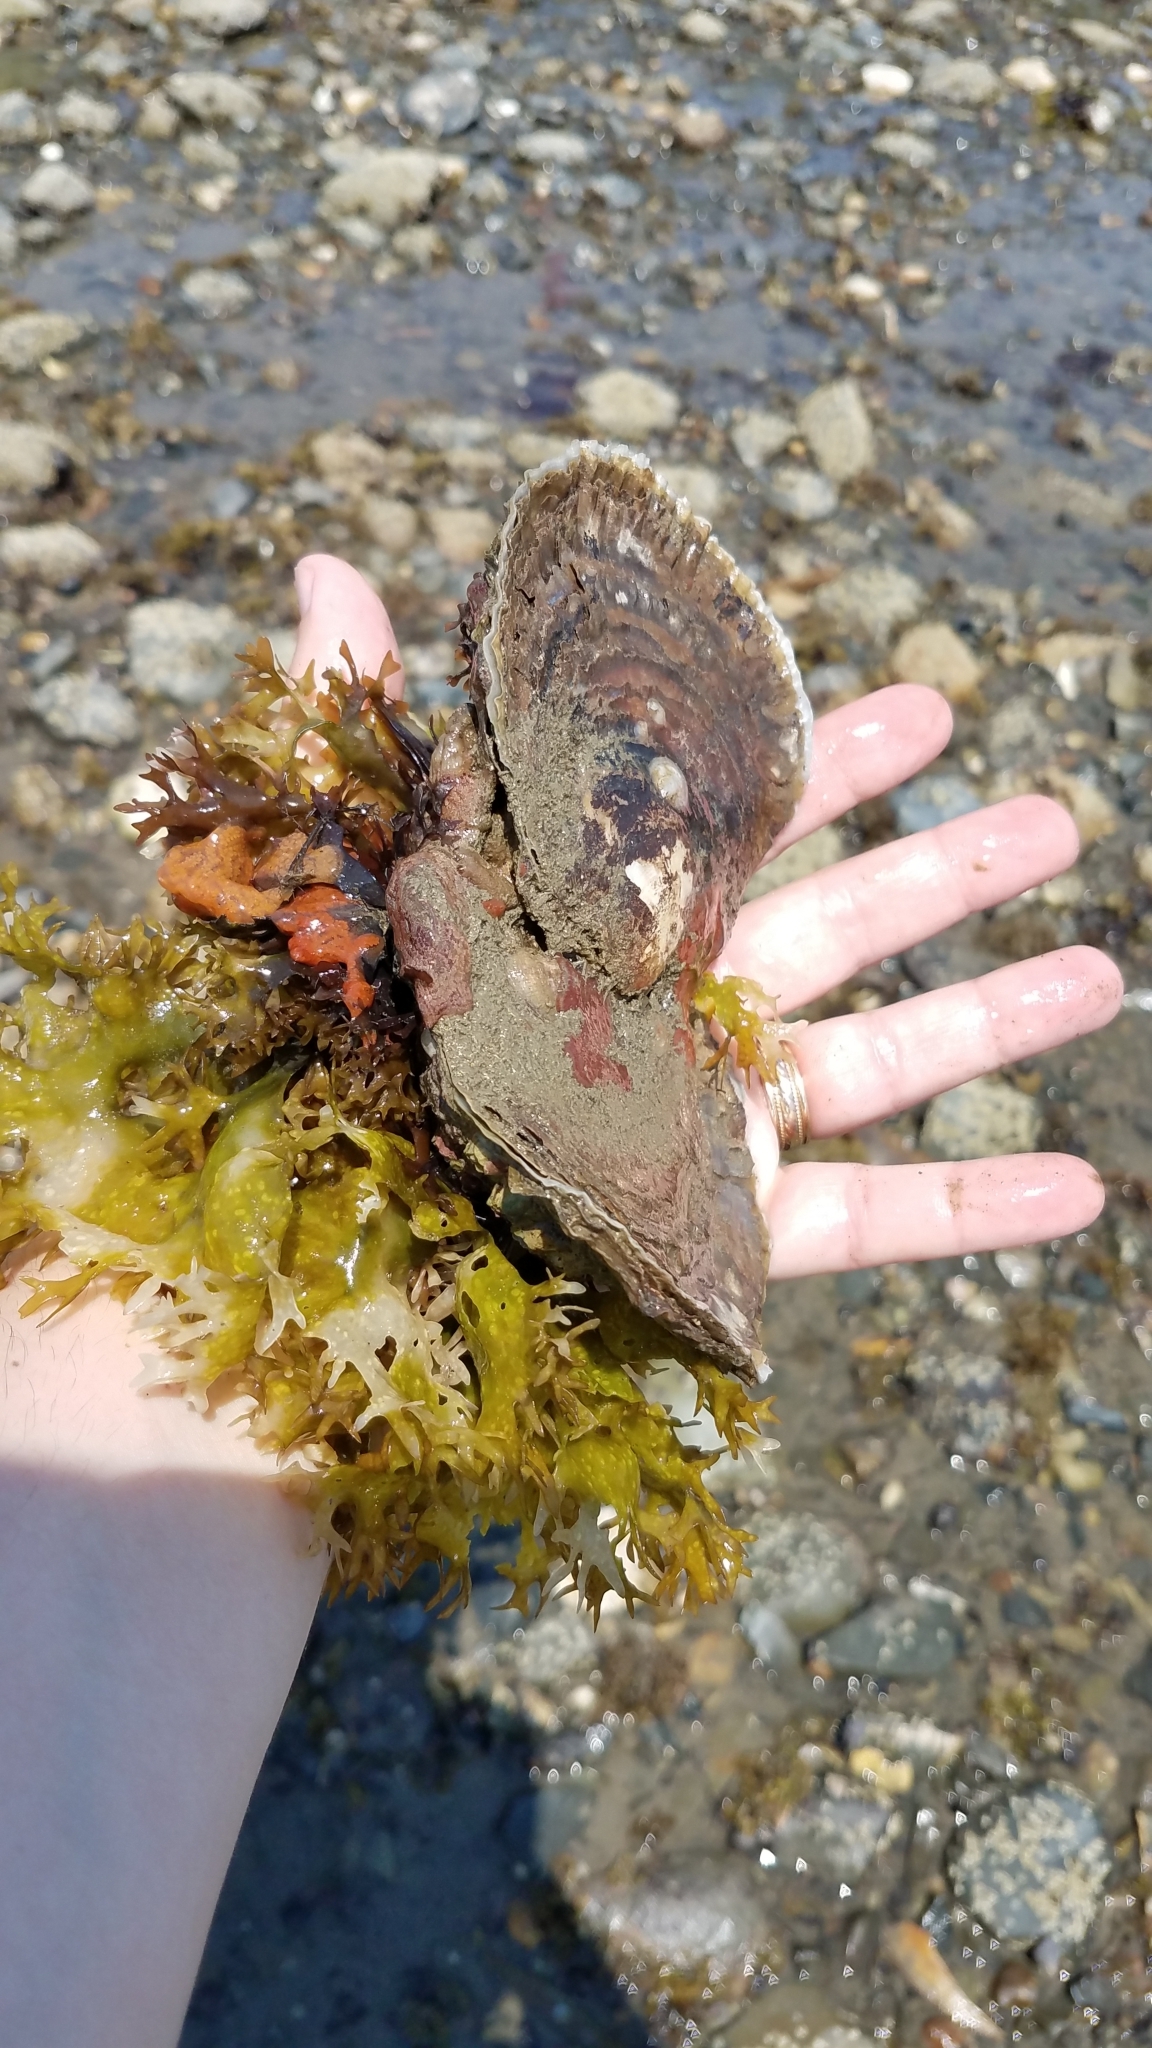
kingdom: Animalia
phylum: Mollusca
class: Bivalvia
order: Ostreida
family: Ostreidae
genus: Ostrea
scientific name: Ostrea edulis
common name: Flat oyster
